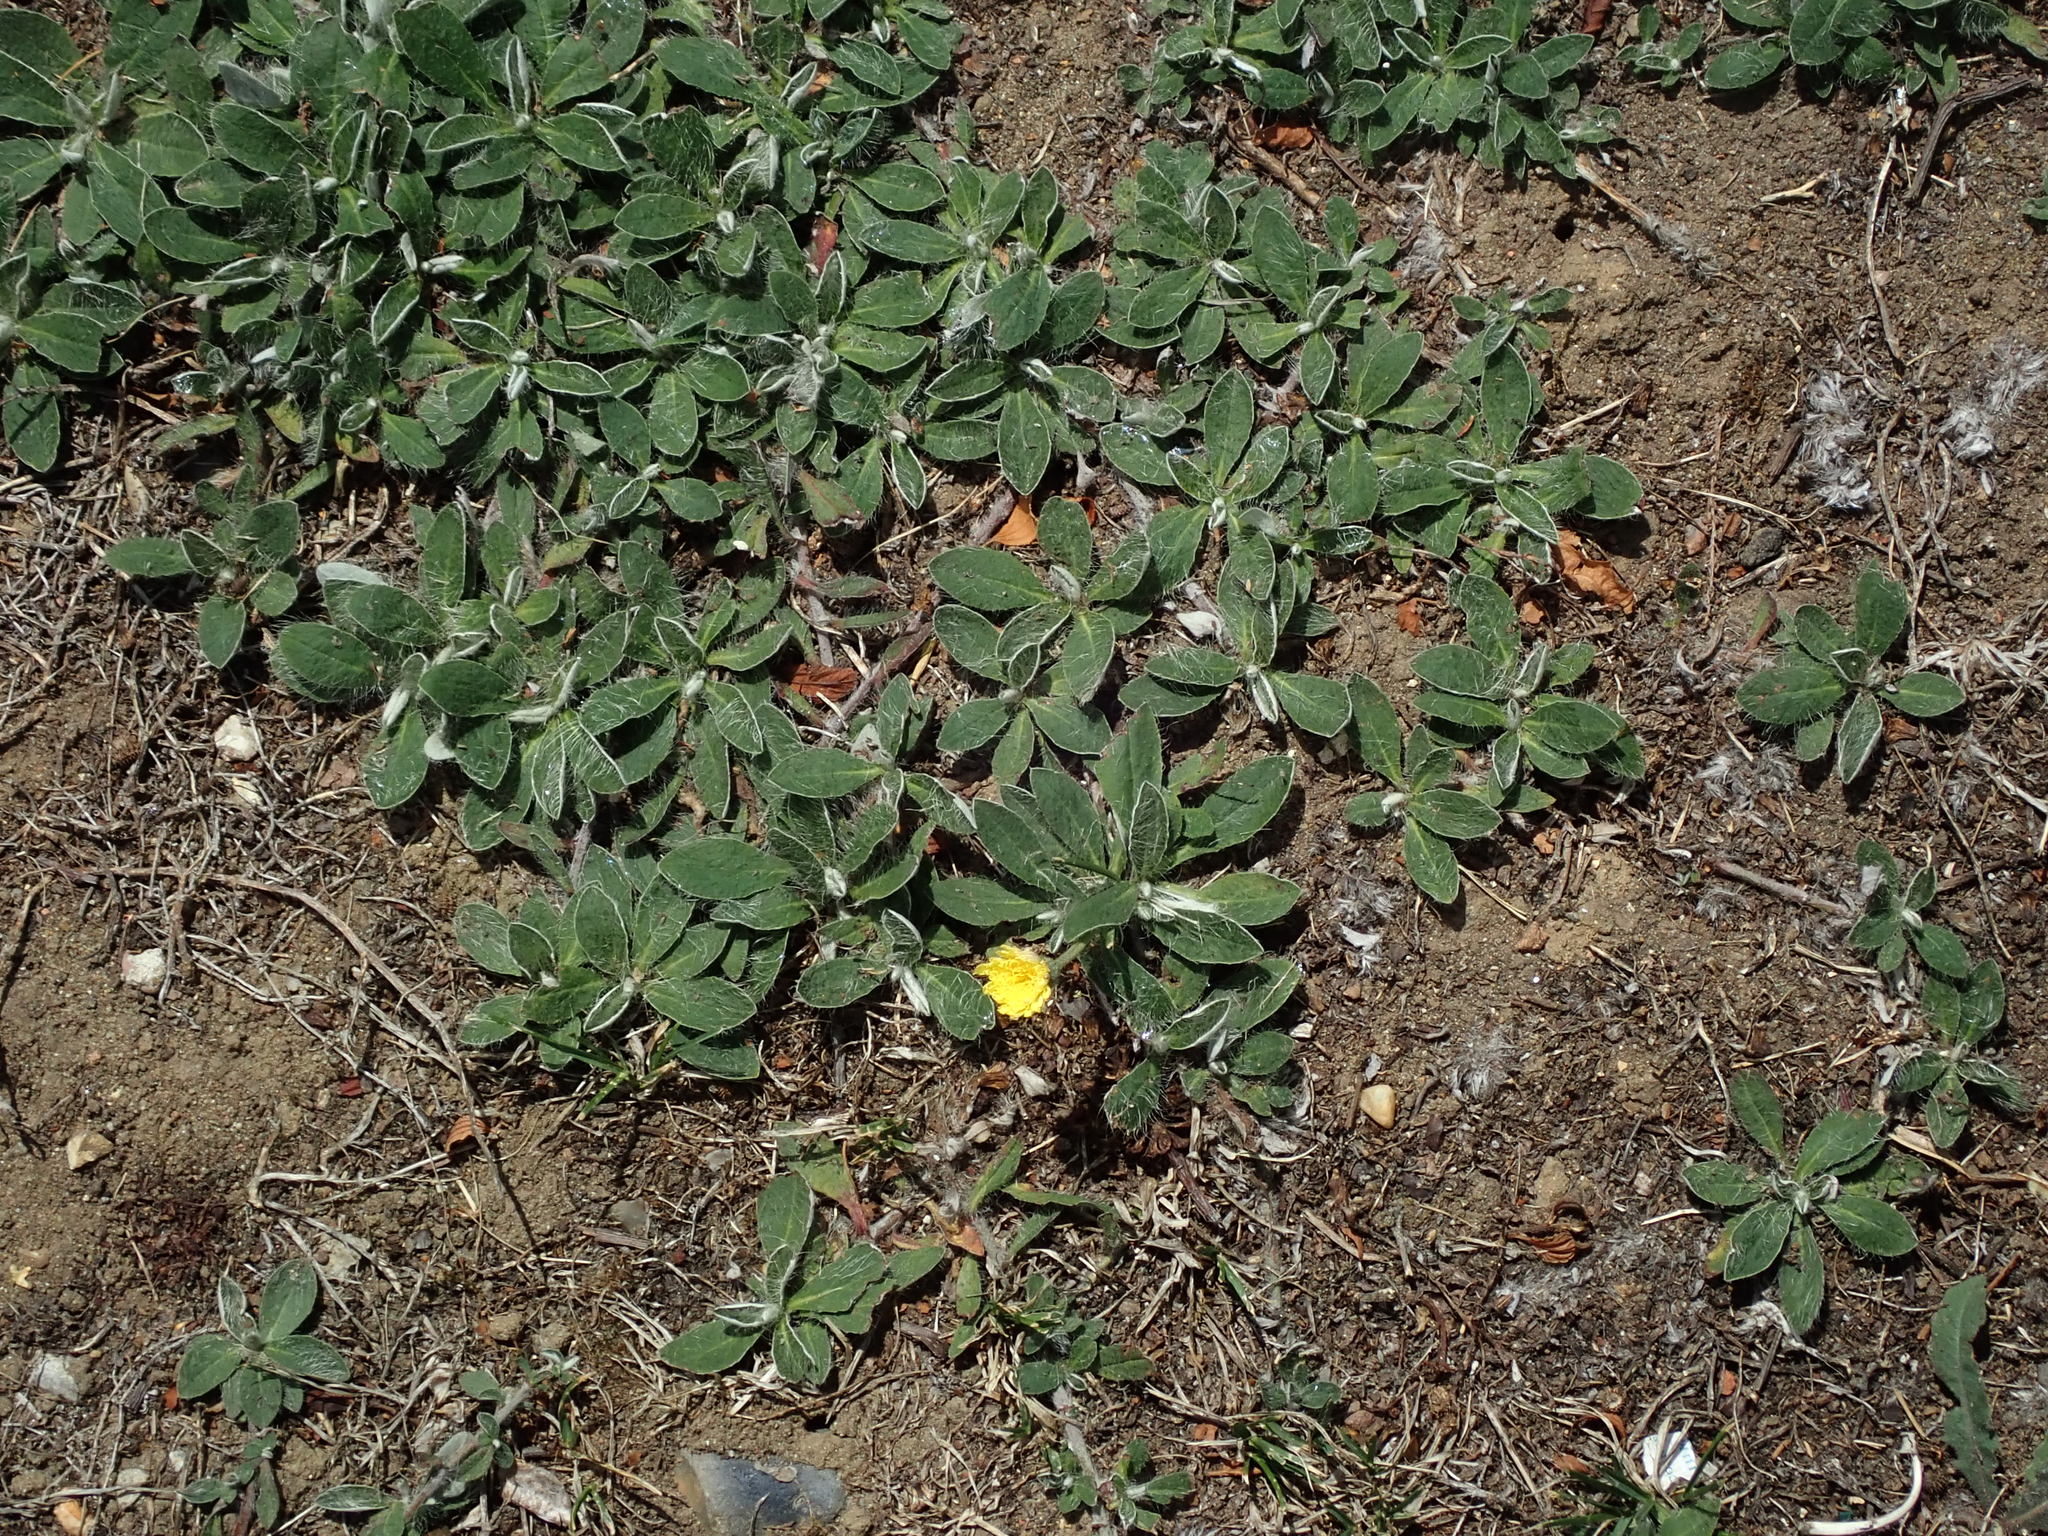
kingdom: Plantae
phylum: Tracheophyta
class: Magnoliopsida
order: Asterales
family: Asteraceae
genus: Pilosella
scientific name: Pilosella officinarum
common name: Mouse-ear hawkweed
